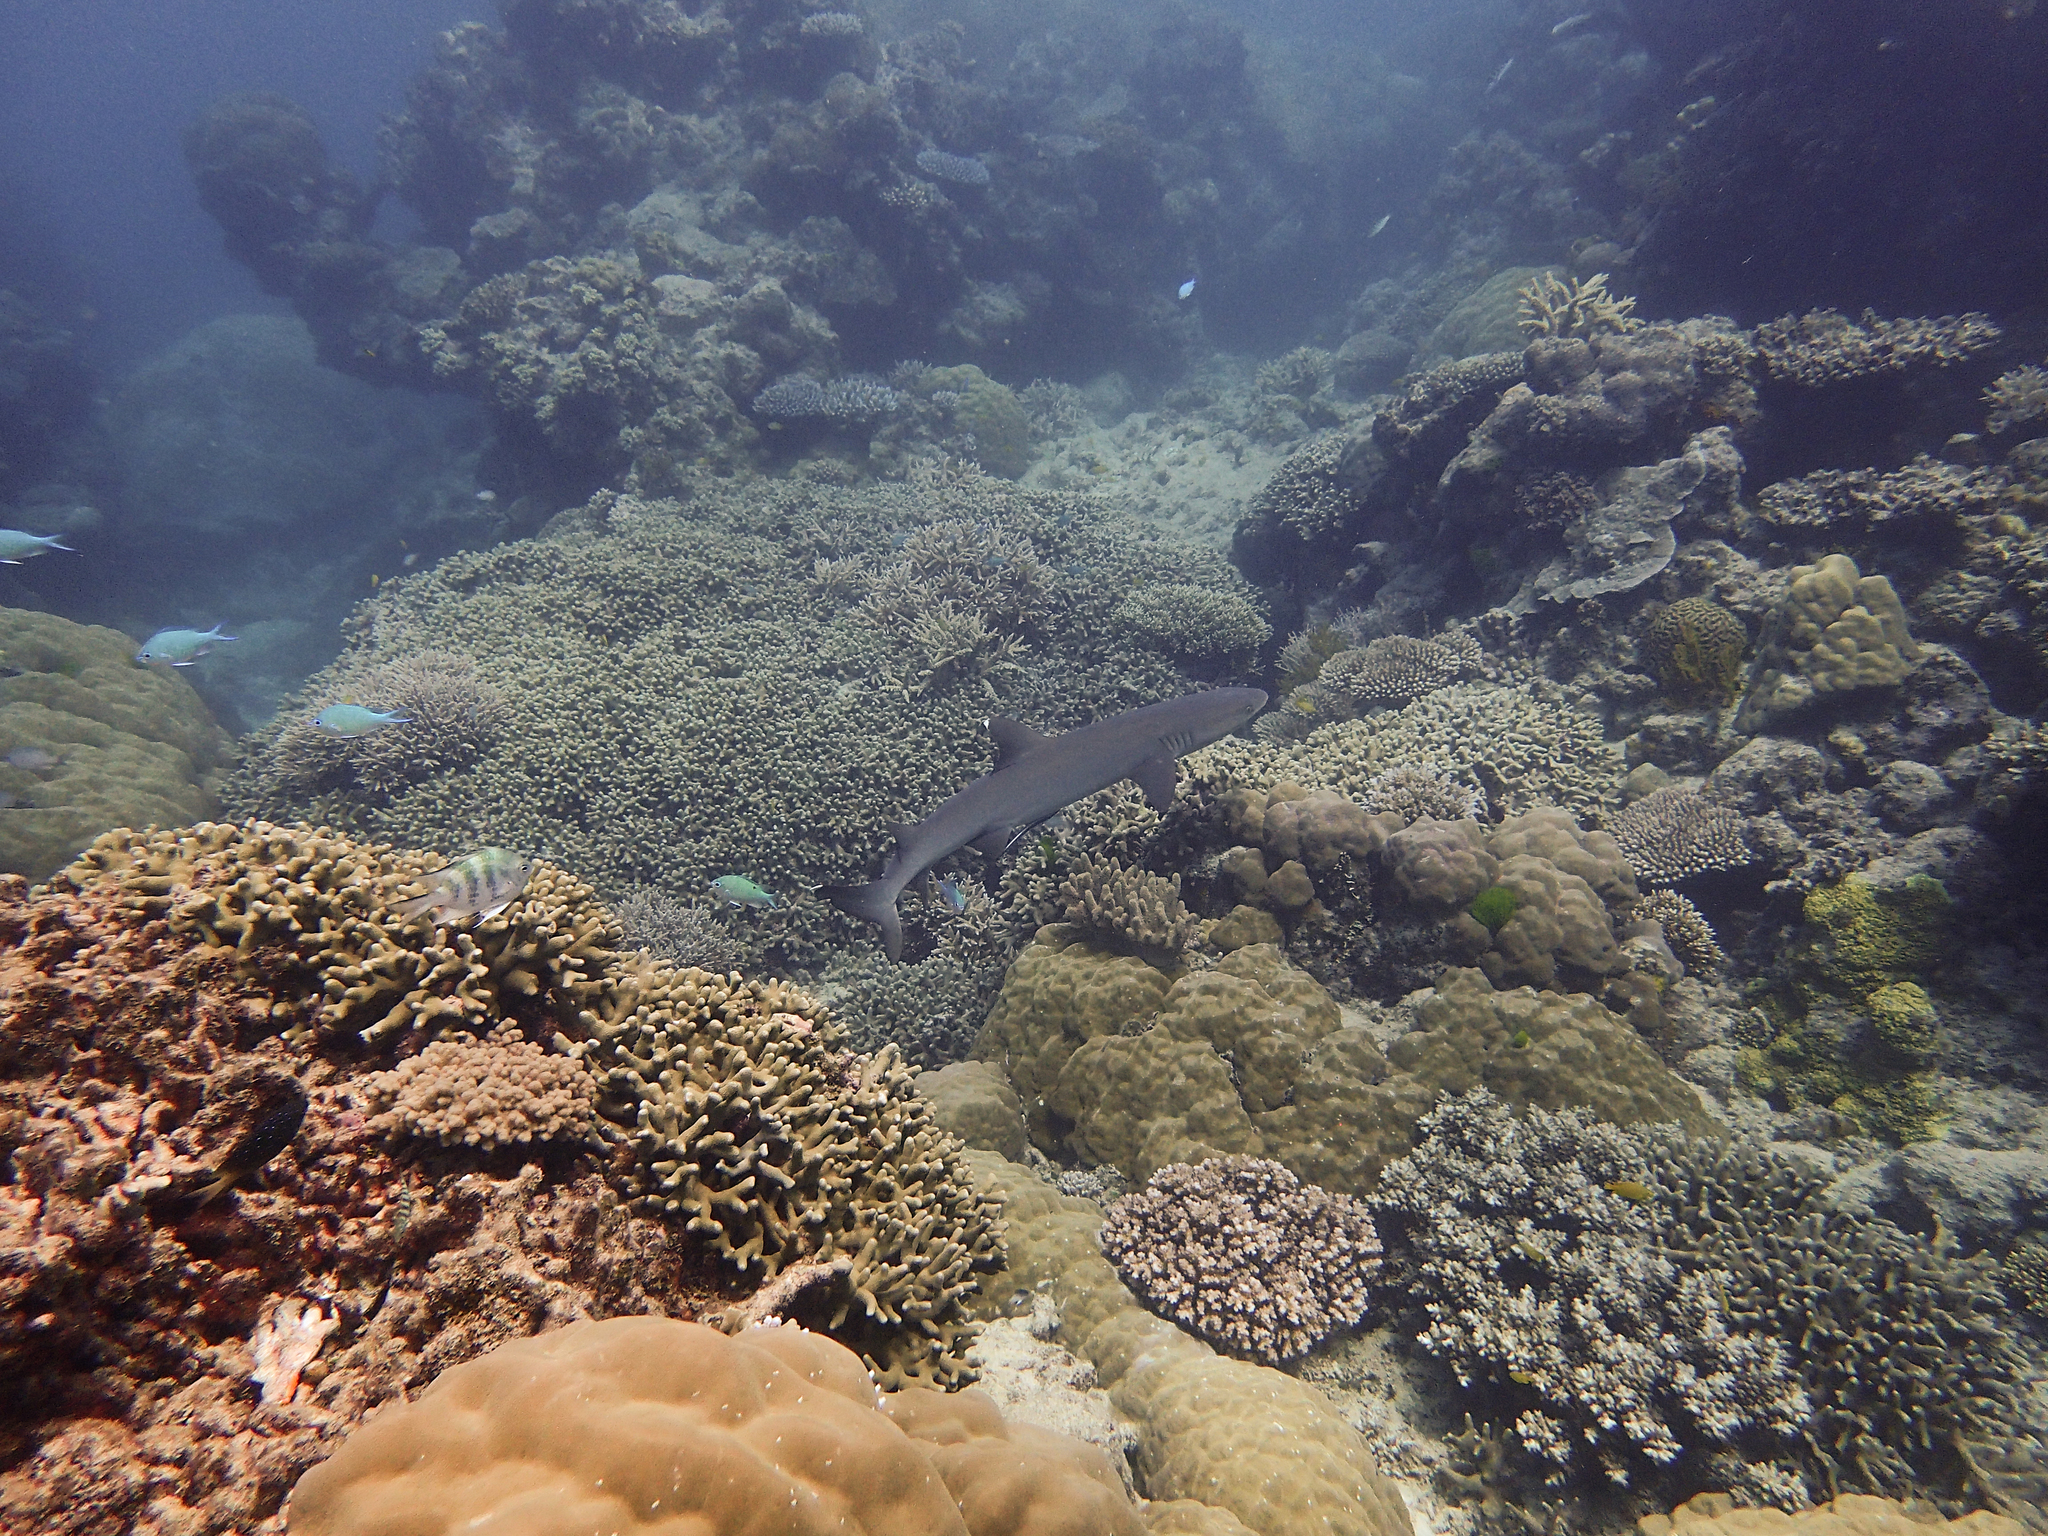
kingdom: Animalia
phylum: Chordata
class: Elasmobranchii
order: Carcharhiniformes
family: Carcharhinidae
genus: Triaenodon
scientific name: Triaenodon obesus
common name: Whitetip reef shark
